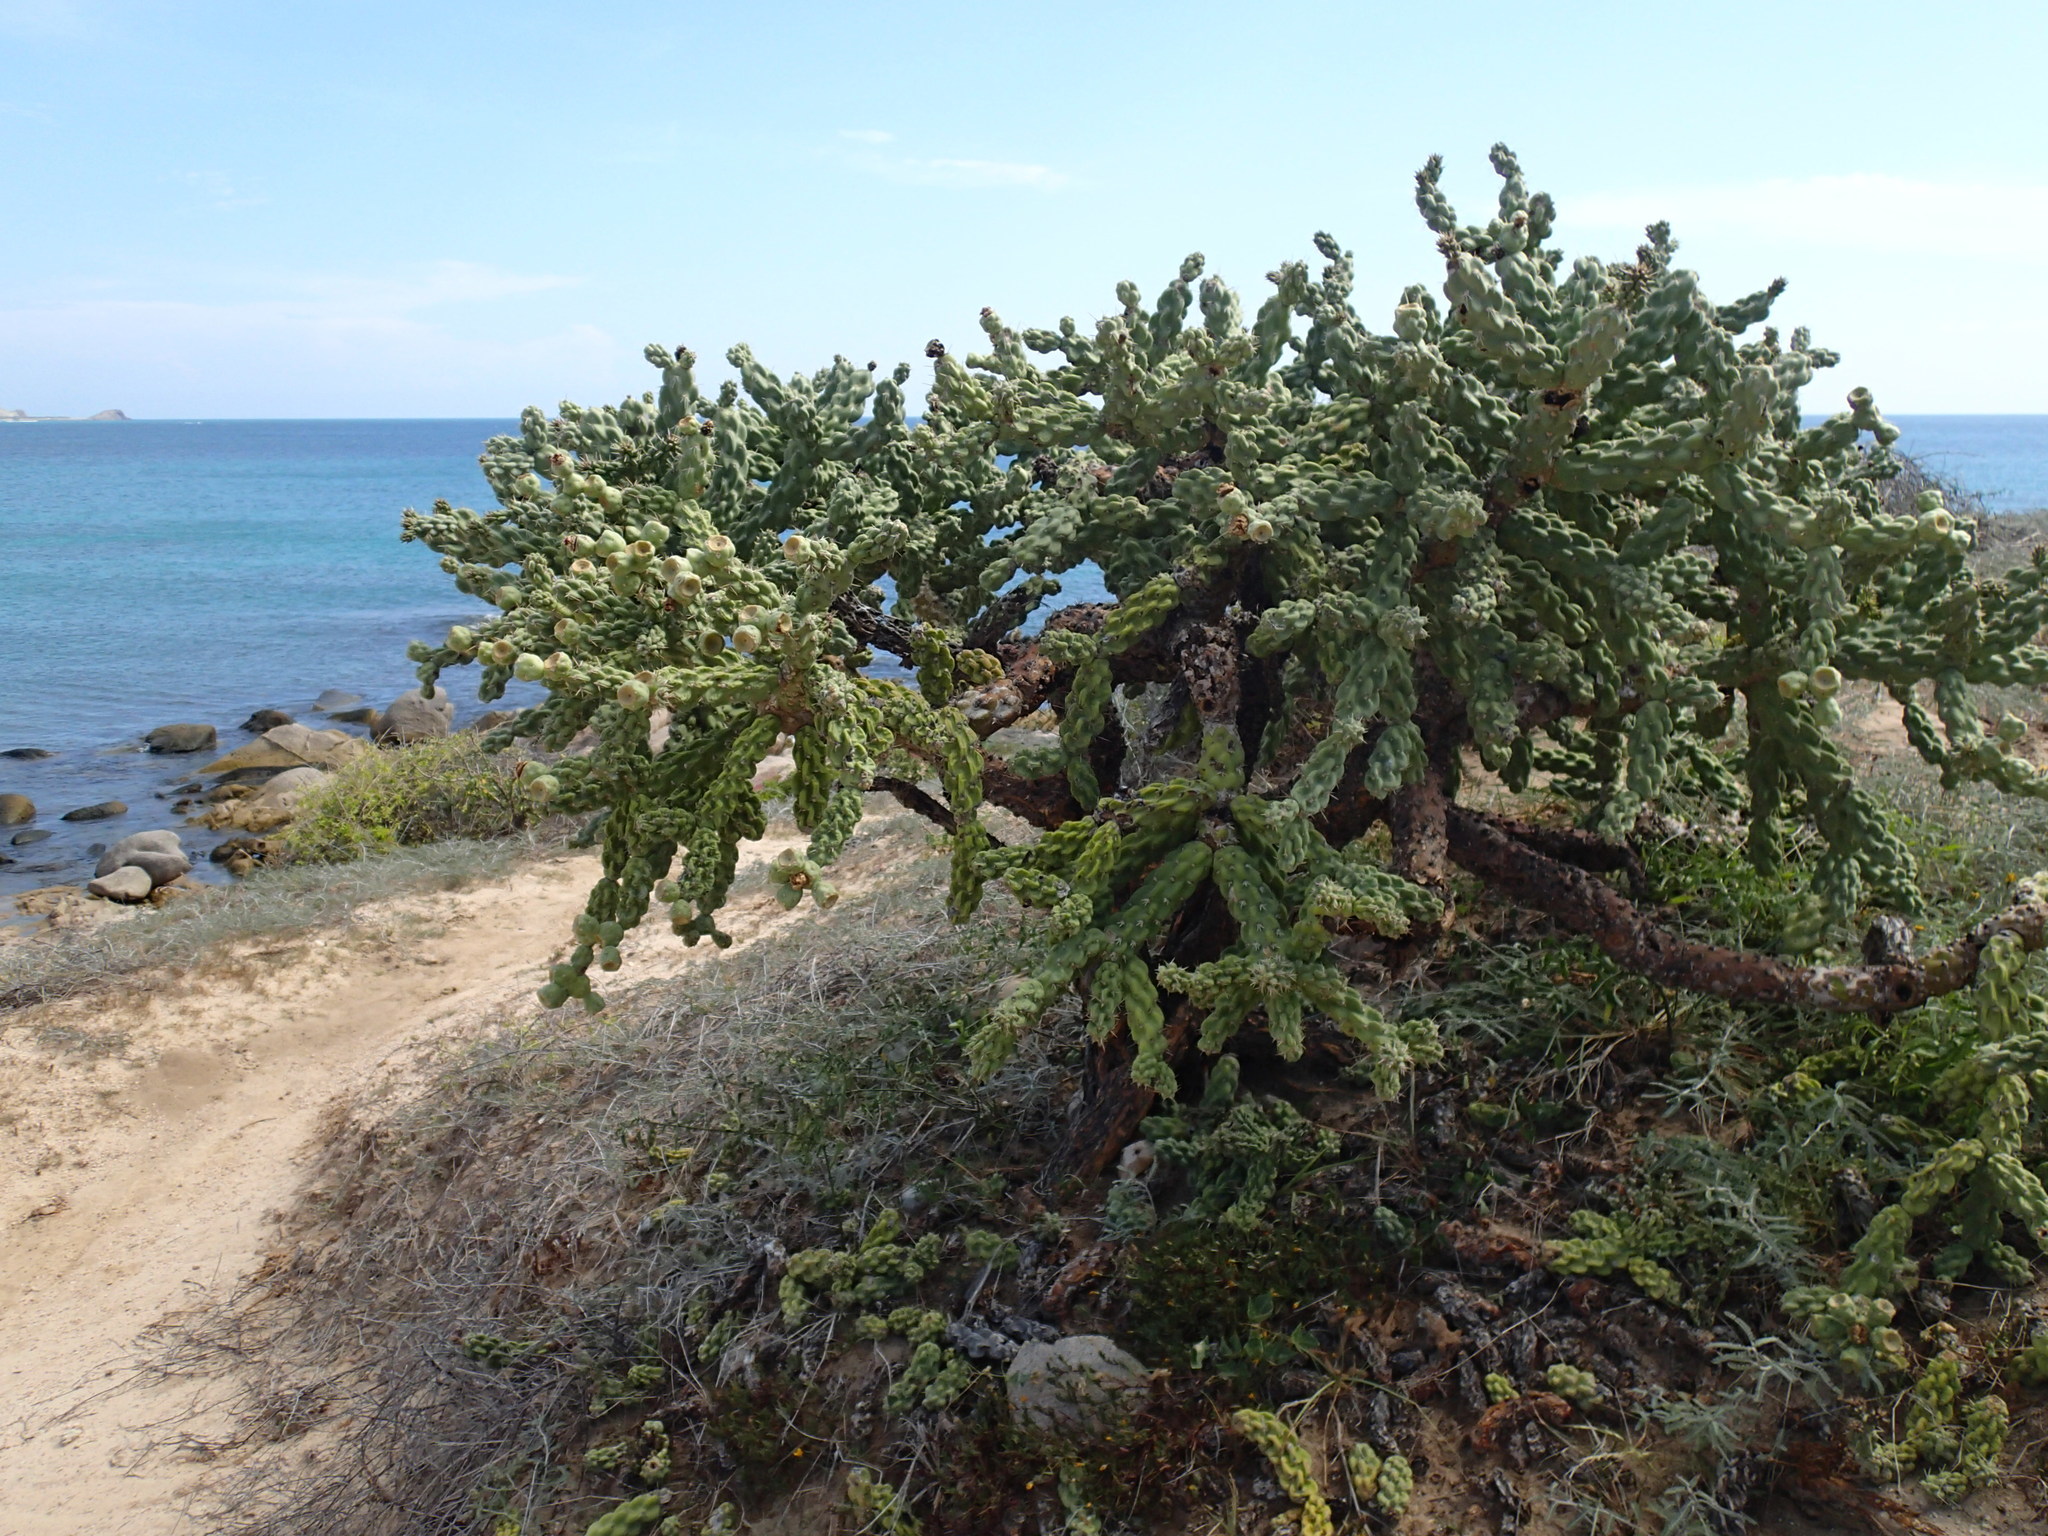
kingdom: Plantae
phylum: Tracheophyta
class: Magnoliopsida
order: Caryophyllales
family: Cactaceae
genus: Cylindropuntia
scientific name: Cylindropuntia cholla
